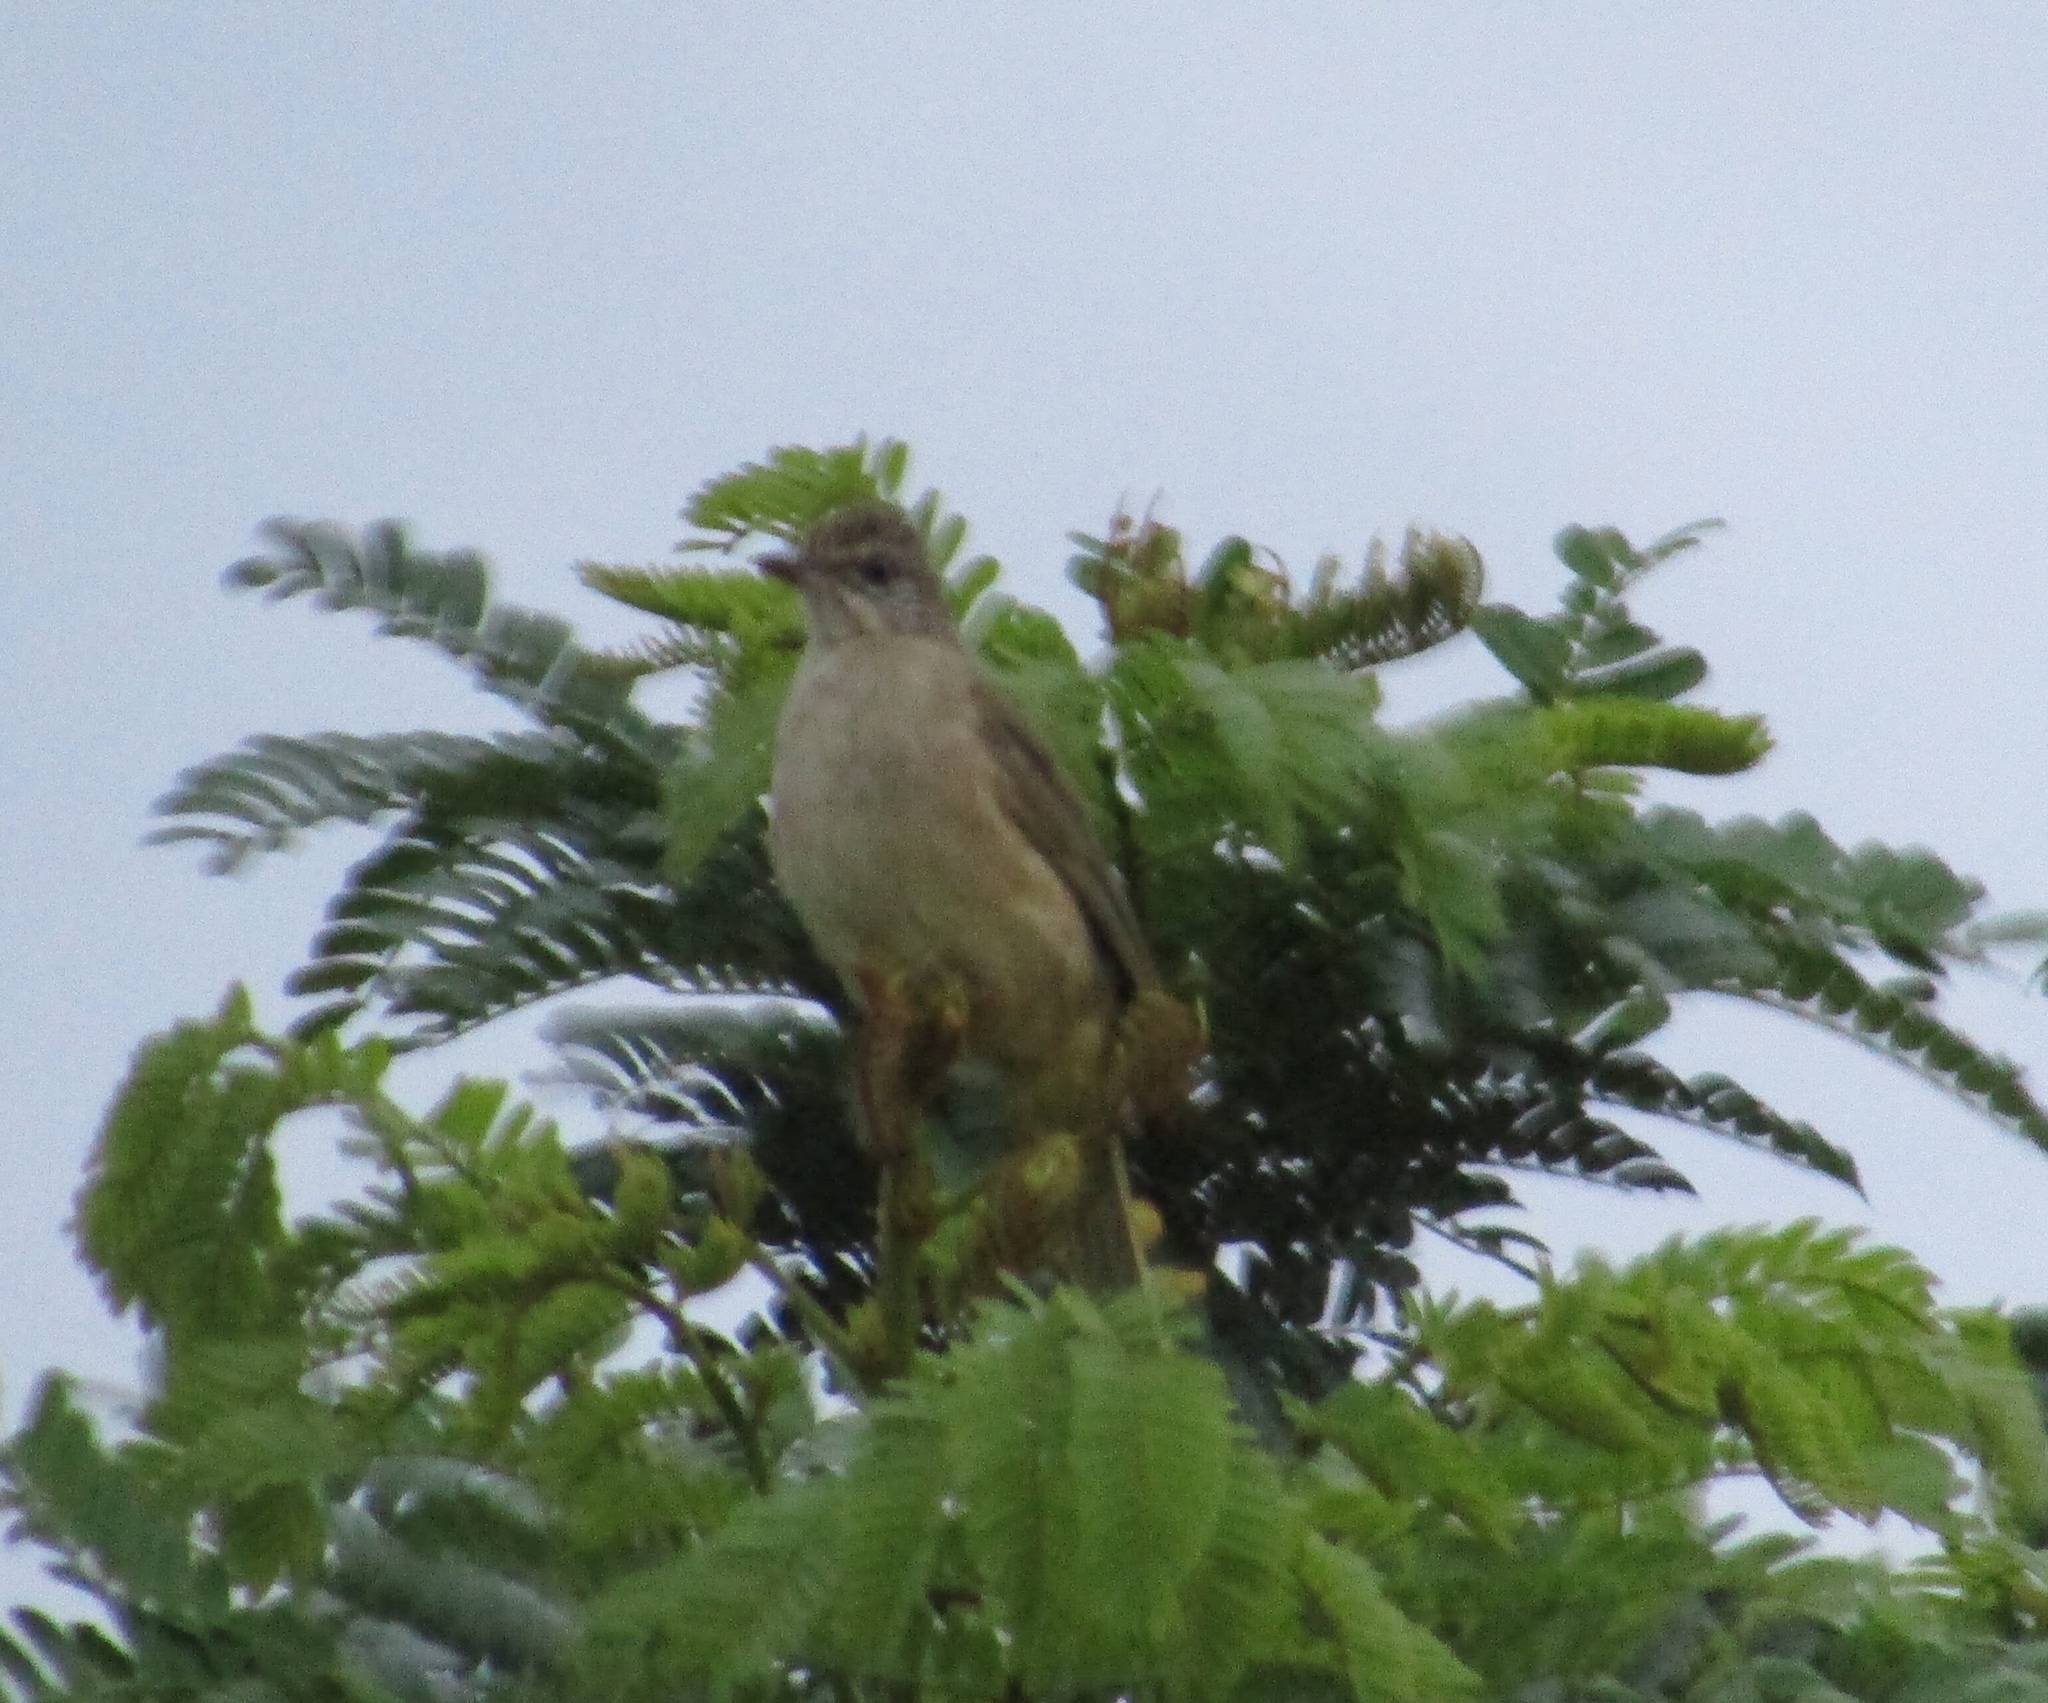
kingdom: Animalia
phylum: Chordata
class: Aves
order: Passeriformes
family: Pycnonotidae
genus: Pycnonotus
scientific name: Pycnonotus blanfordi
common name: Streak-eared bulbul
